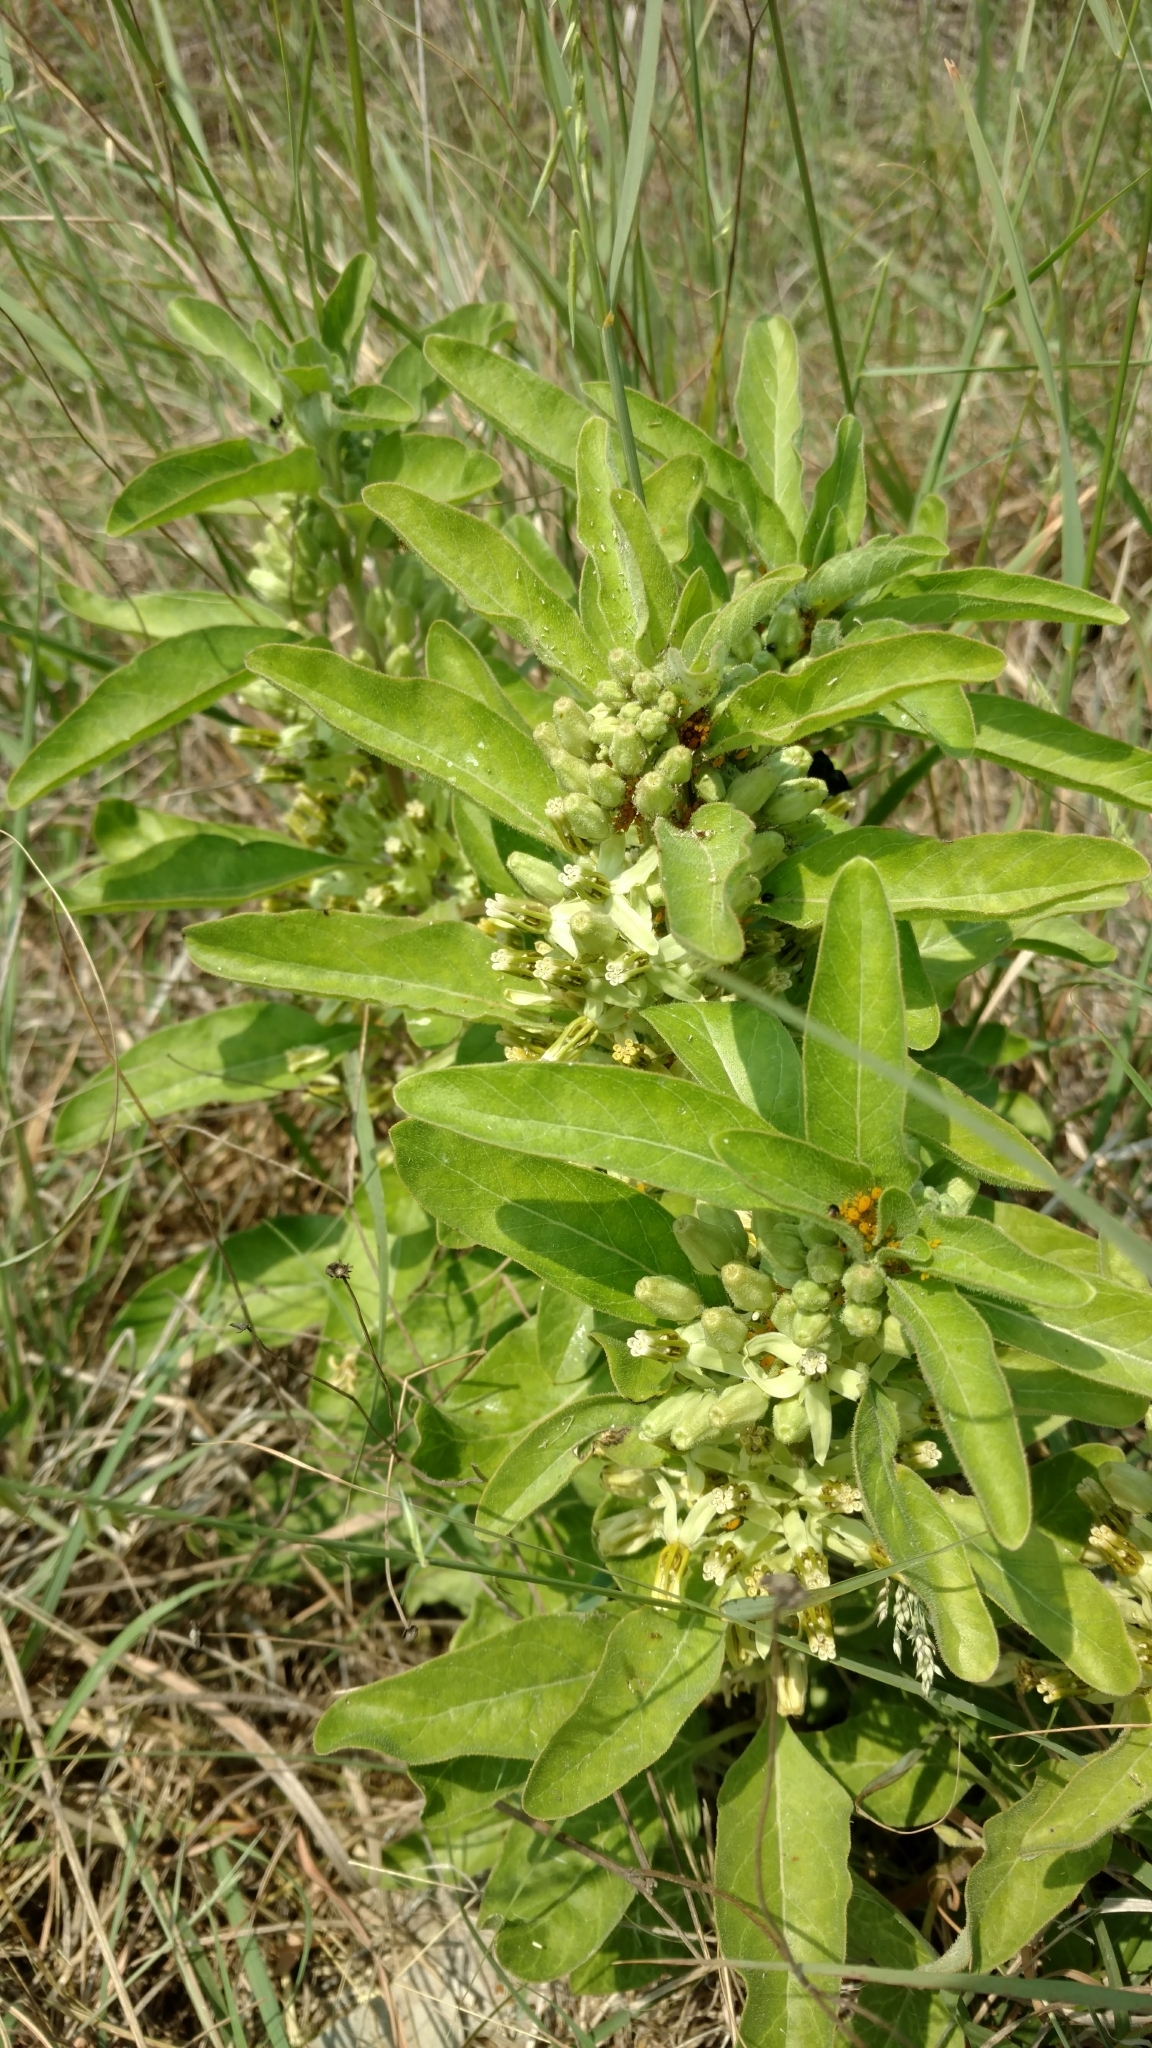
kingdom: Plantae
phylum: Tracheophyta
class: Magnoliopsida
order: Gentianales
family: Apocynaceae
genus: Asclepias
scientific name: Asclepias oenotheroides
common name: Zizotes milkweed
